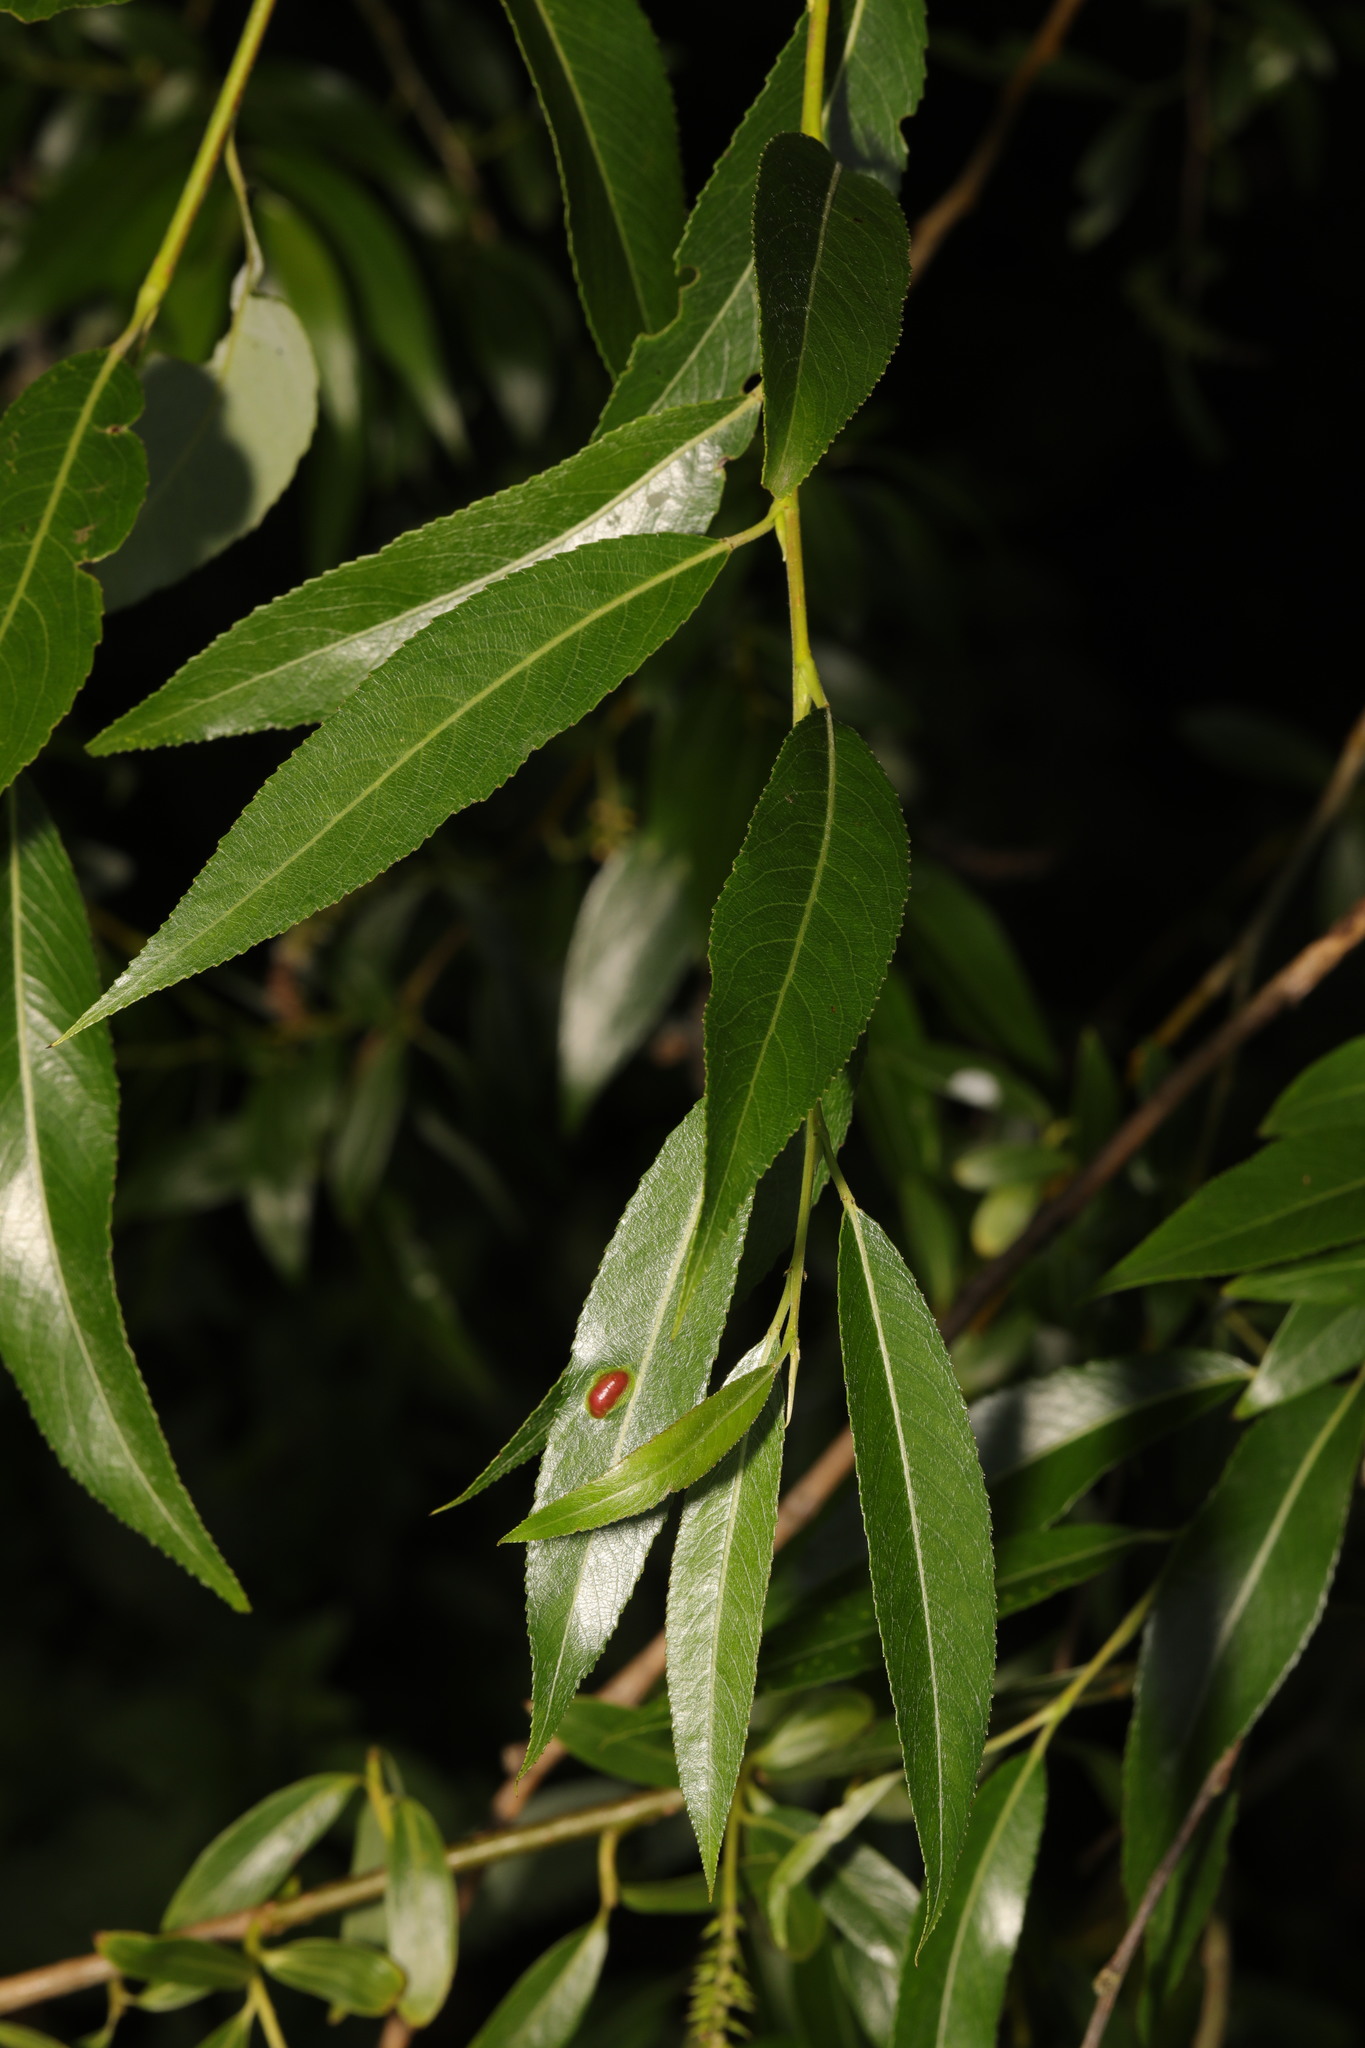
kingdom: Plantae
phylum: Tracheophyta
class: Magnoliopsida
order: Malpighiales
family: Salicaceae
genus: Salix
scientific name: Salix fragilis
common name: Crack willow
